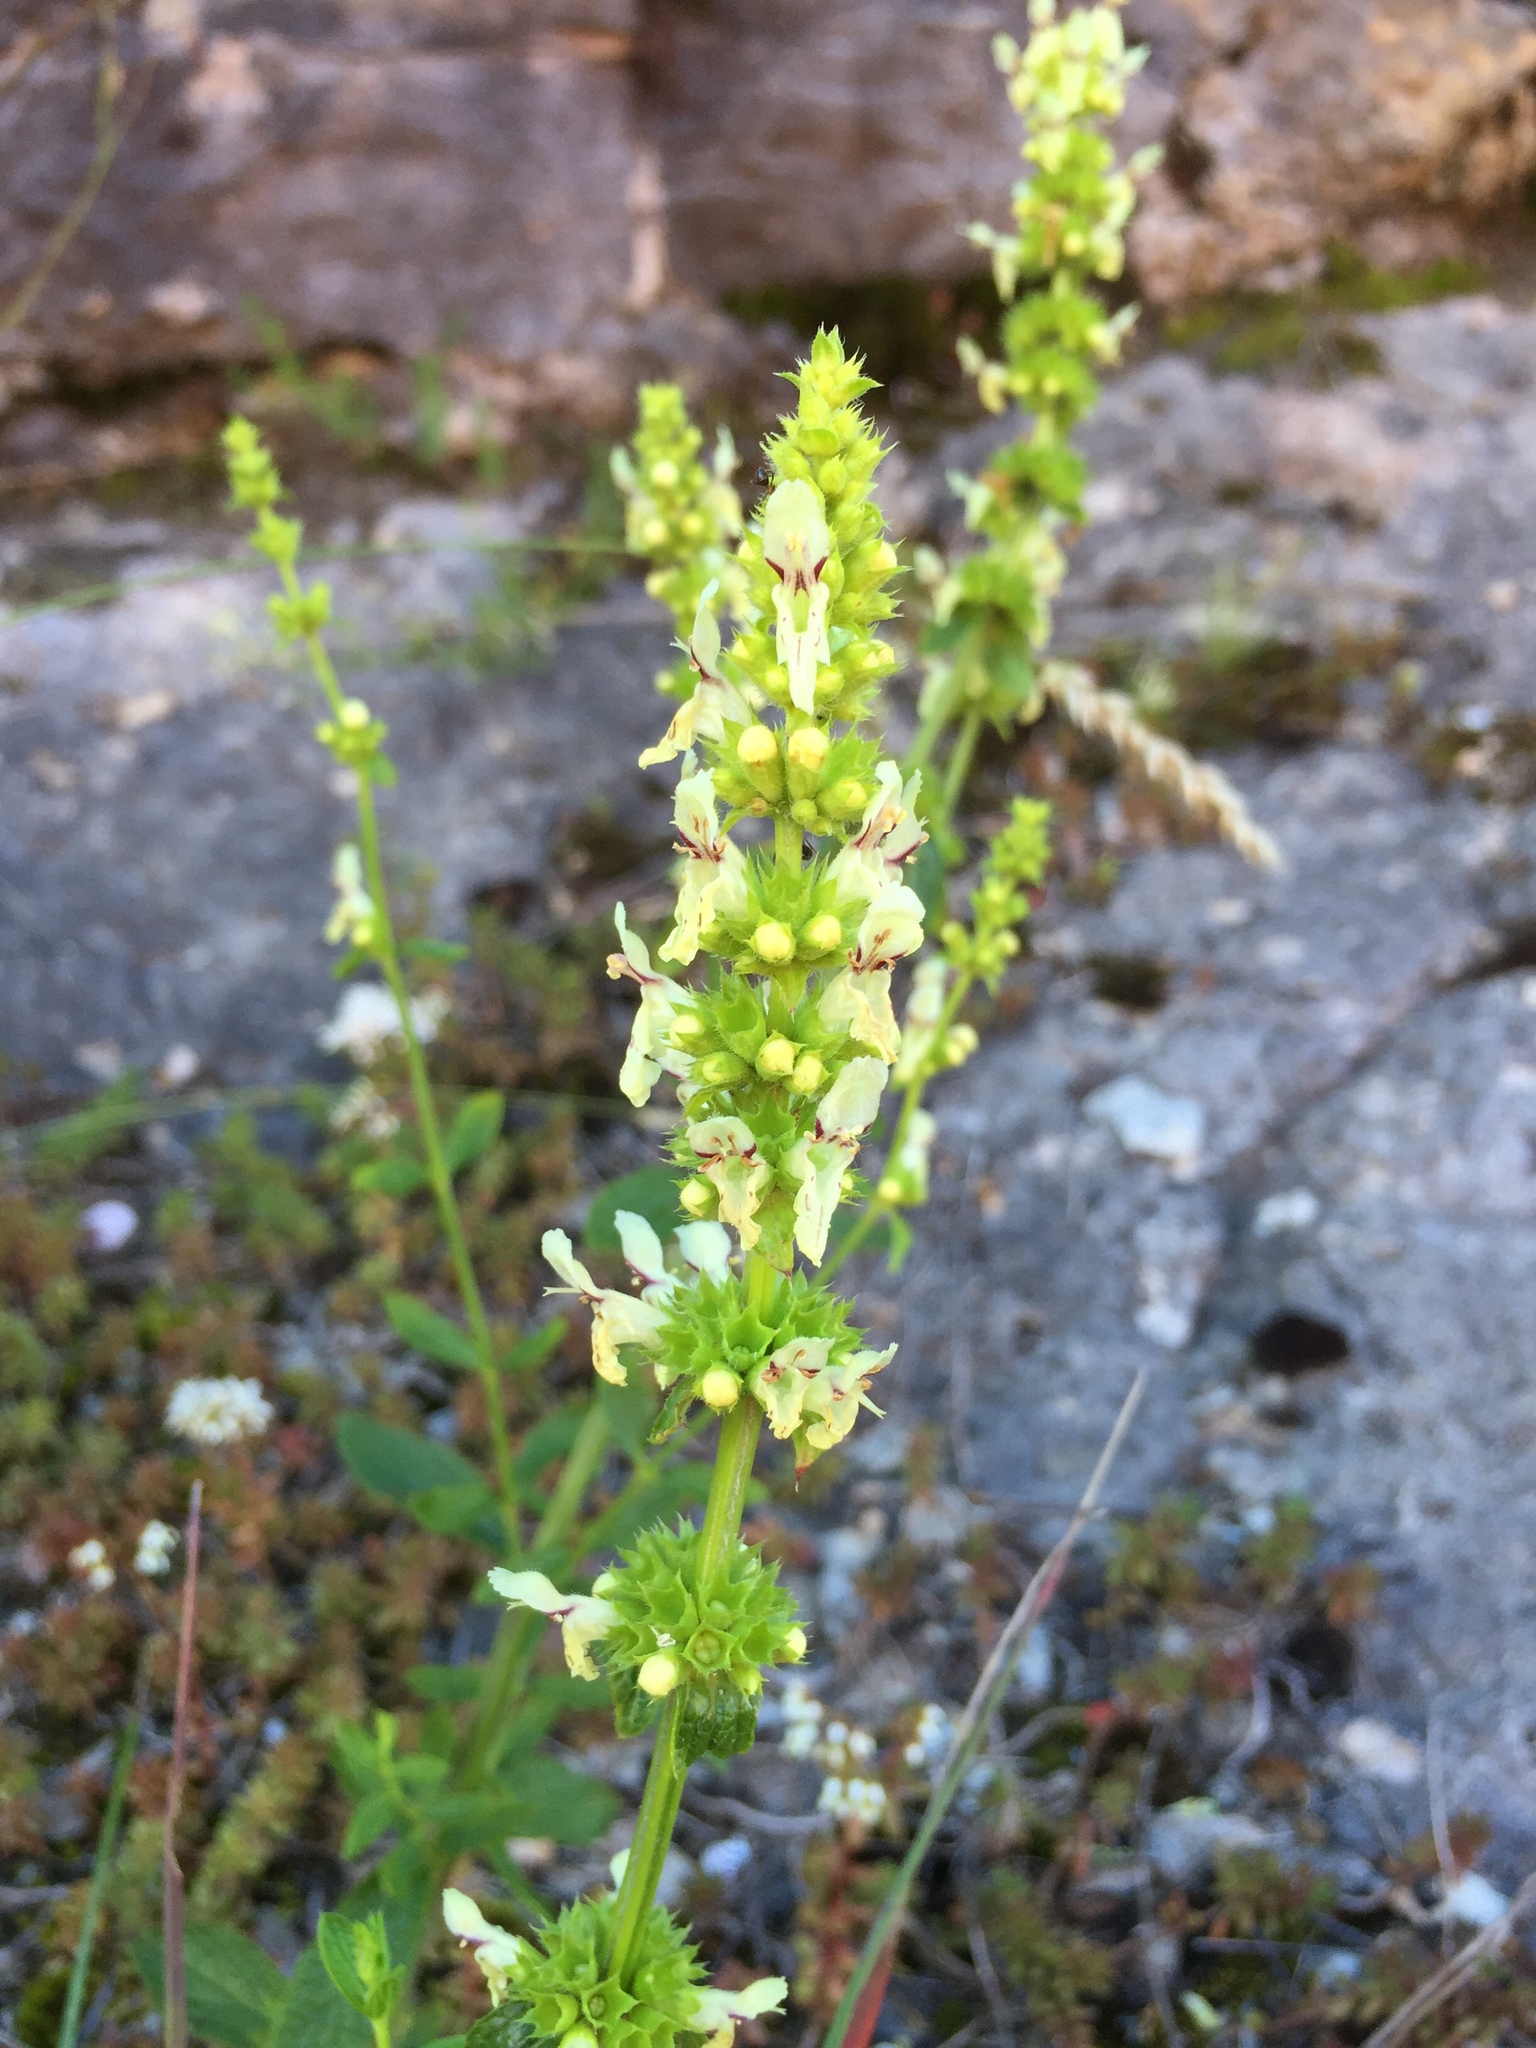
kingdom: Plantae
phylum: Tracheophyta
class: Magnoliopsida
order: Lamiales
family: Lamiaceae
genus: Stachys
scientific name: Stachys recta
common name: Perennial yellow-woundwort
